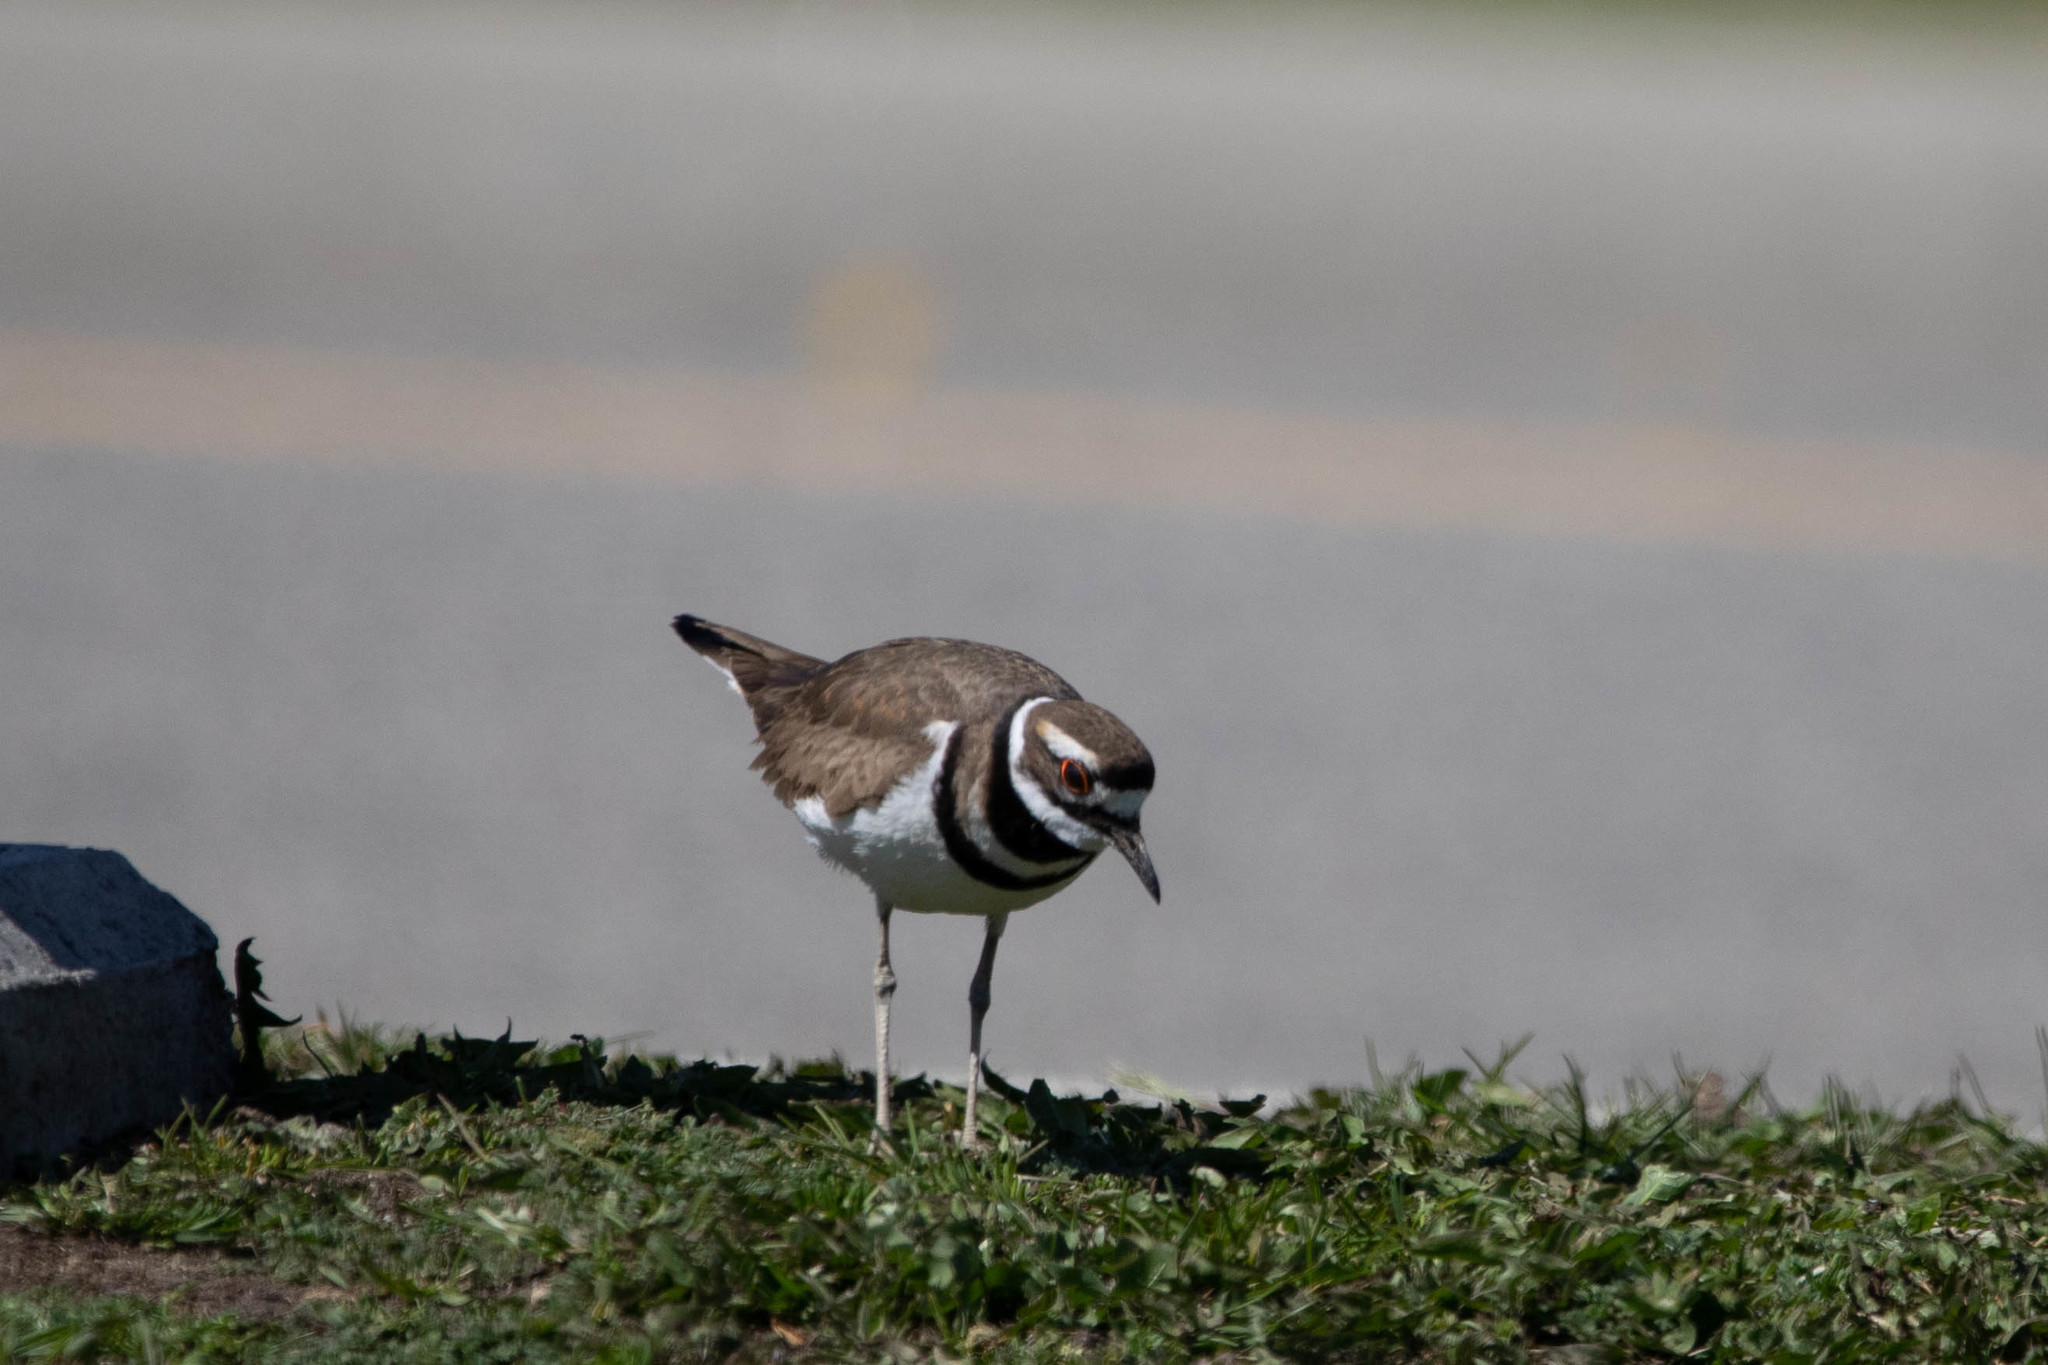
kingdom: Animalia
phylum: Chordata
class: Aves
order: Charadriiformes
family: Charadriidae
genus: Charadrius
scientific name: Charadrius vociferus
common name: Killdeer
